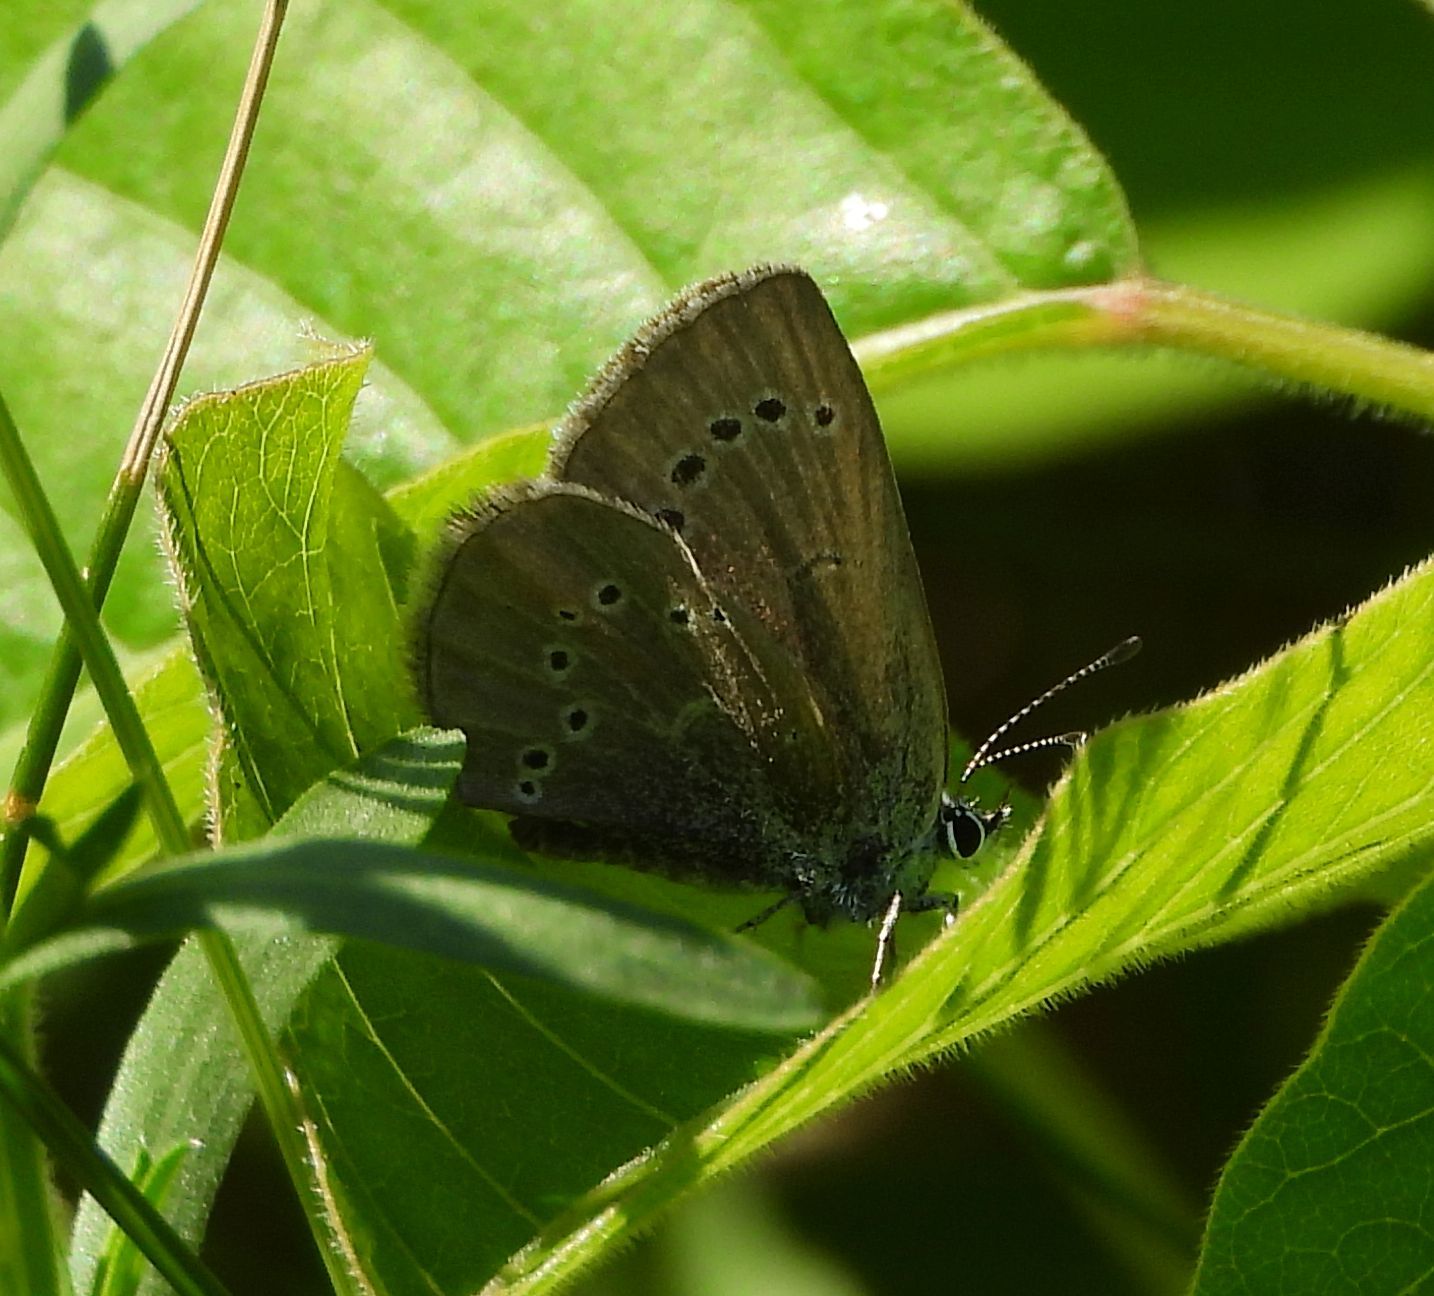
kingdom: Animalia
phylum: Arthropoda
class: Insecta
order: Lepidoptera
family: Lycaenidae
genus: Glaucopsyche
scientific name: Glaucopsyche lygdamus
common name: Silvery blue
